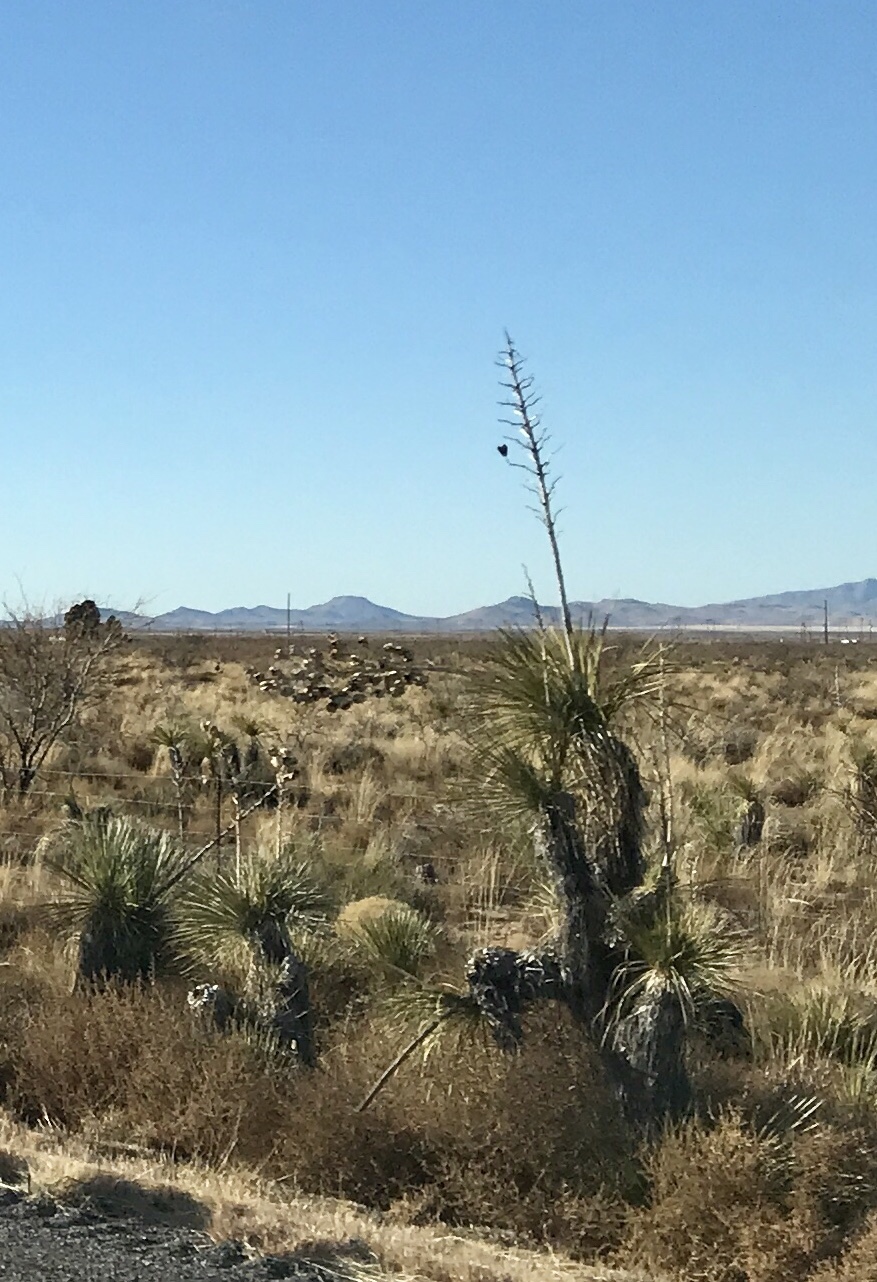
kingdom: Plantae
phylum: Tracheophyta
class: Liliopsida
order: Asparagales
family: Asparagaceae
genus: Yucca
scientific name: Yucca elata
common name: Palmella
